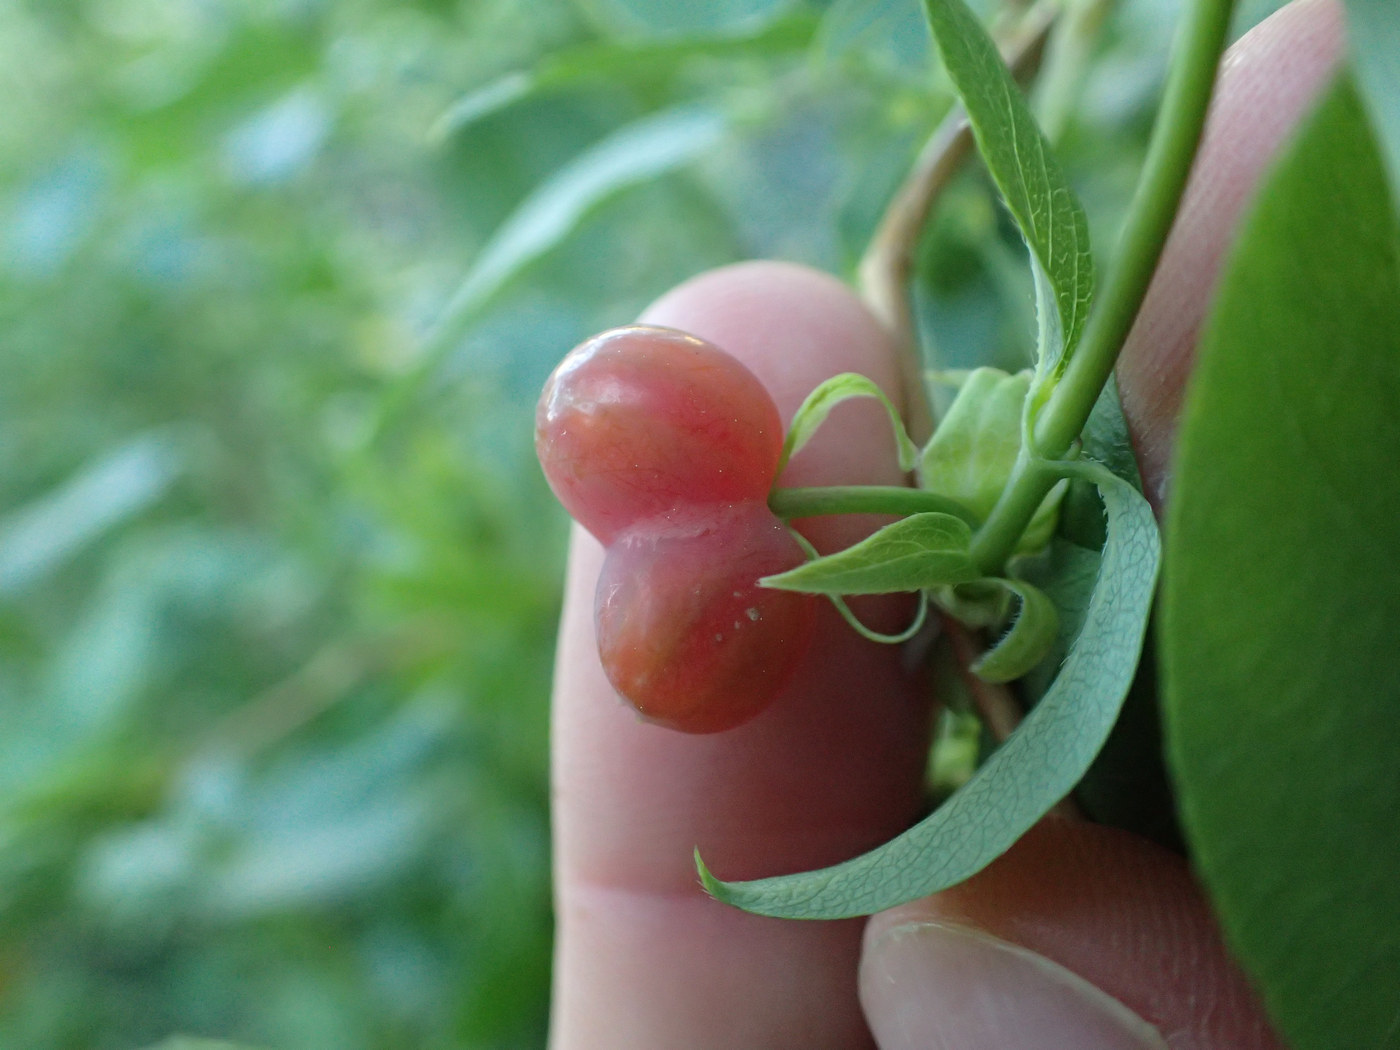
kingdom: Plantae
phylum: Tracheophyta
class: Magnoliopsida
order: Dipsacales
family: Caprifoliaceae
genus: Lonicera
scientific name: Lonicera fragrantissima
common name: Fragrant honeysuckle
